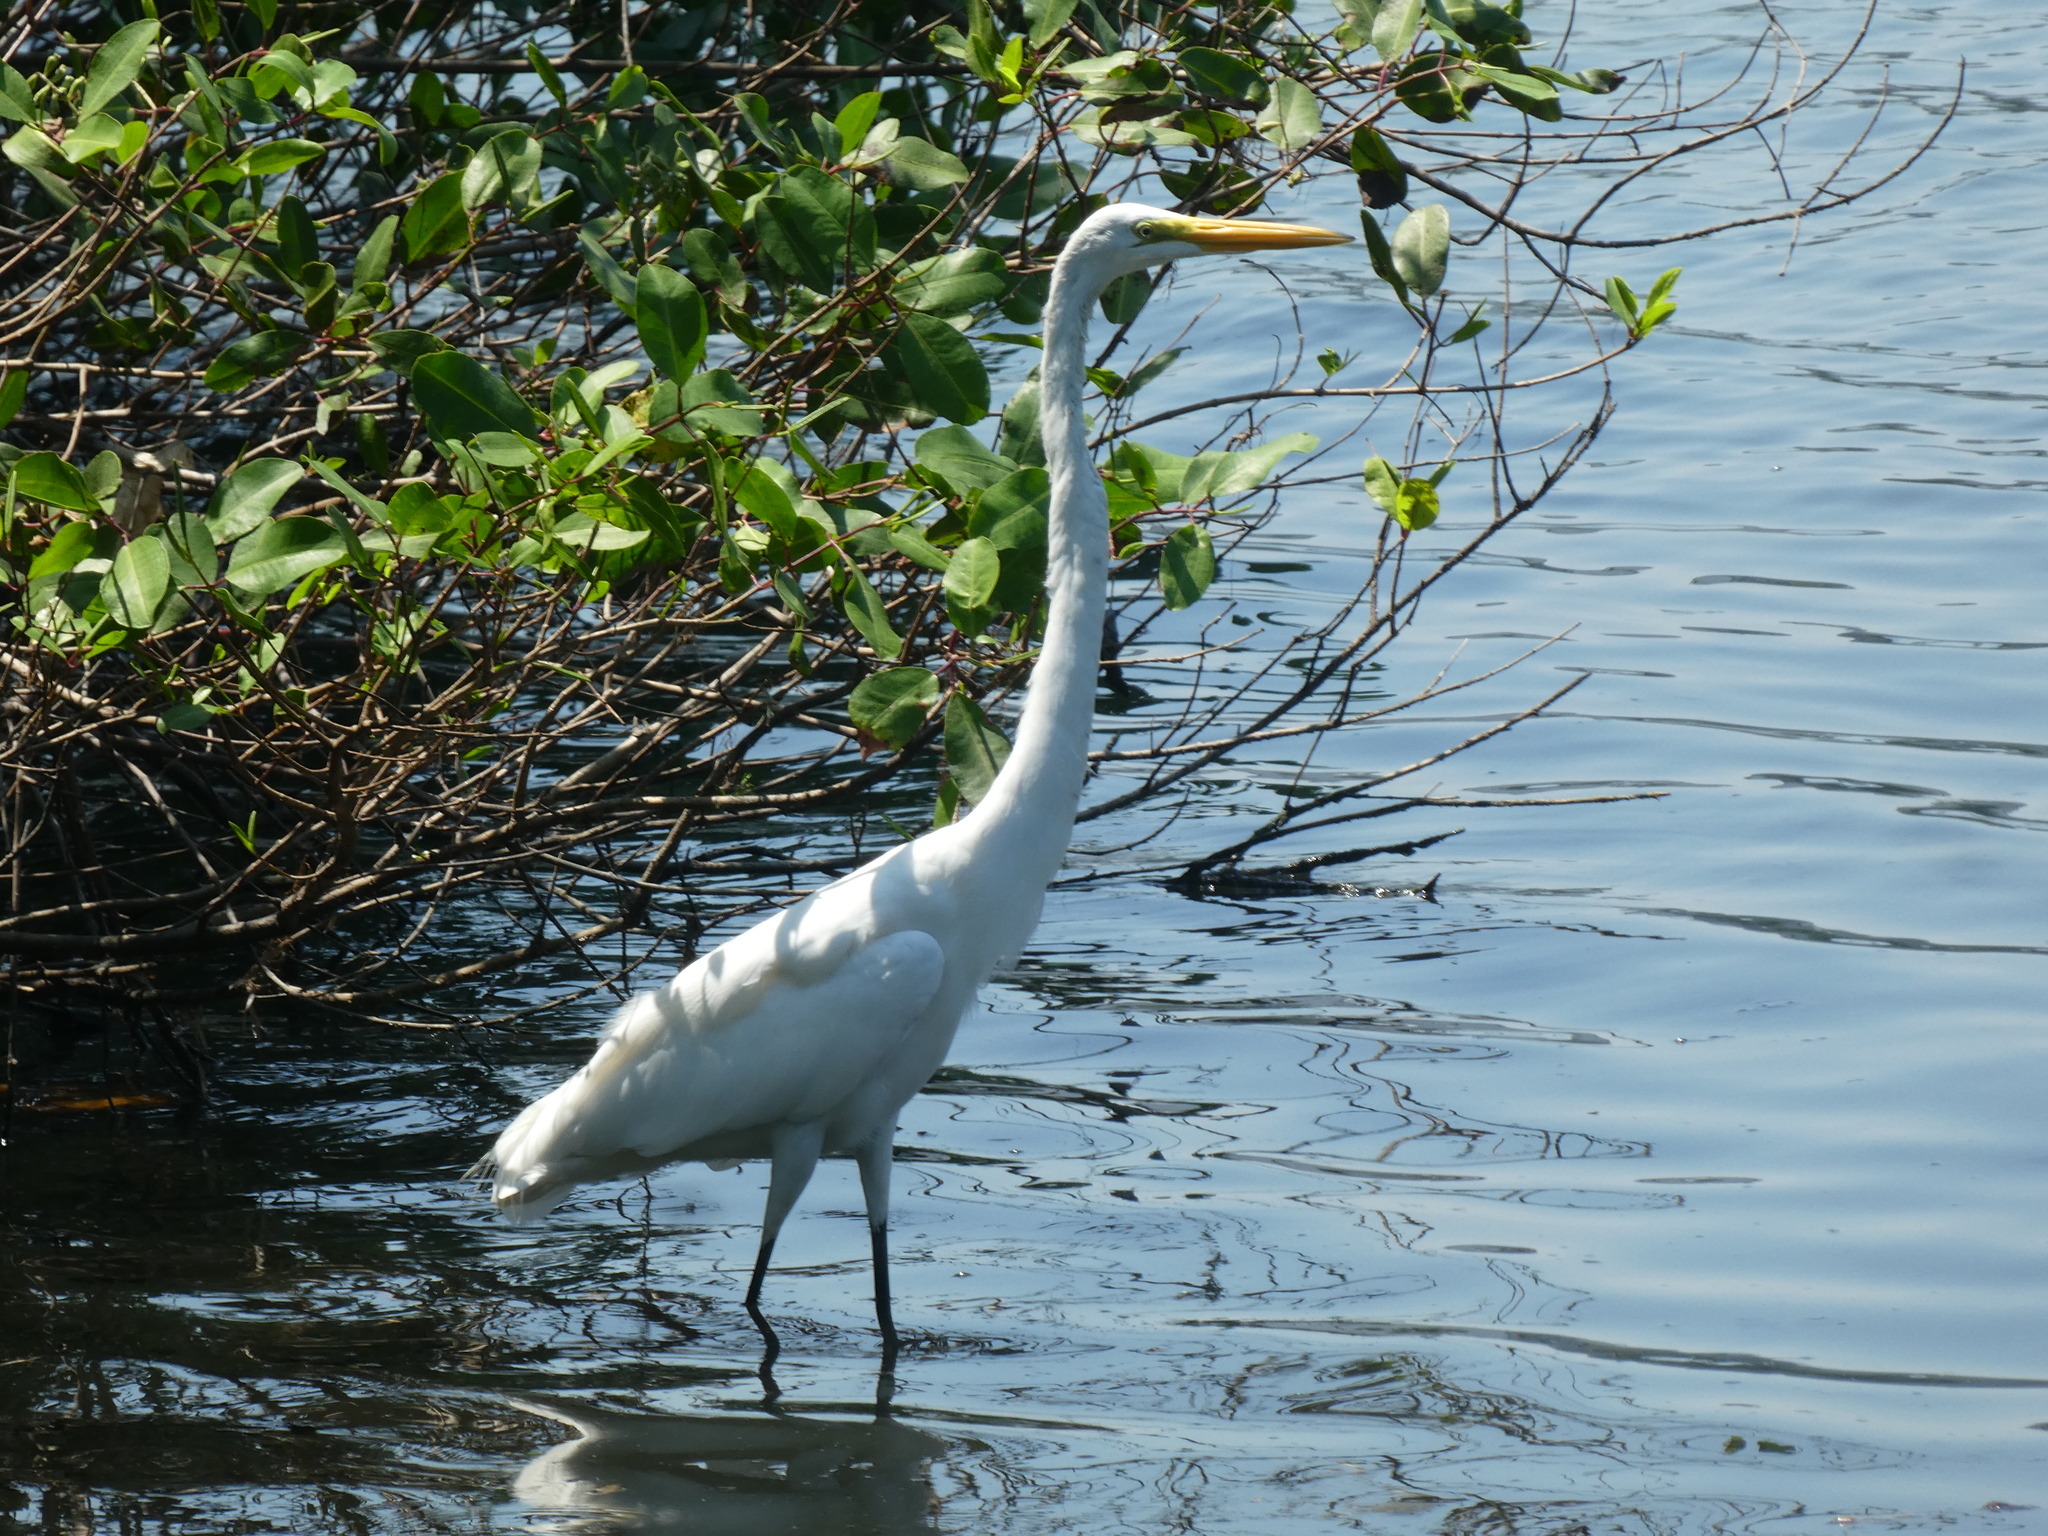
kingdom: Animalia
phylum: Chordata
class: Aves
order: Pelecaniformes
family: Ardeidae
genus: Ardea
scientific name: Ardea alba
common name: Great egret
